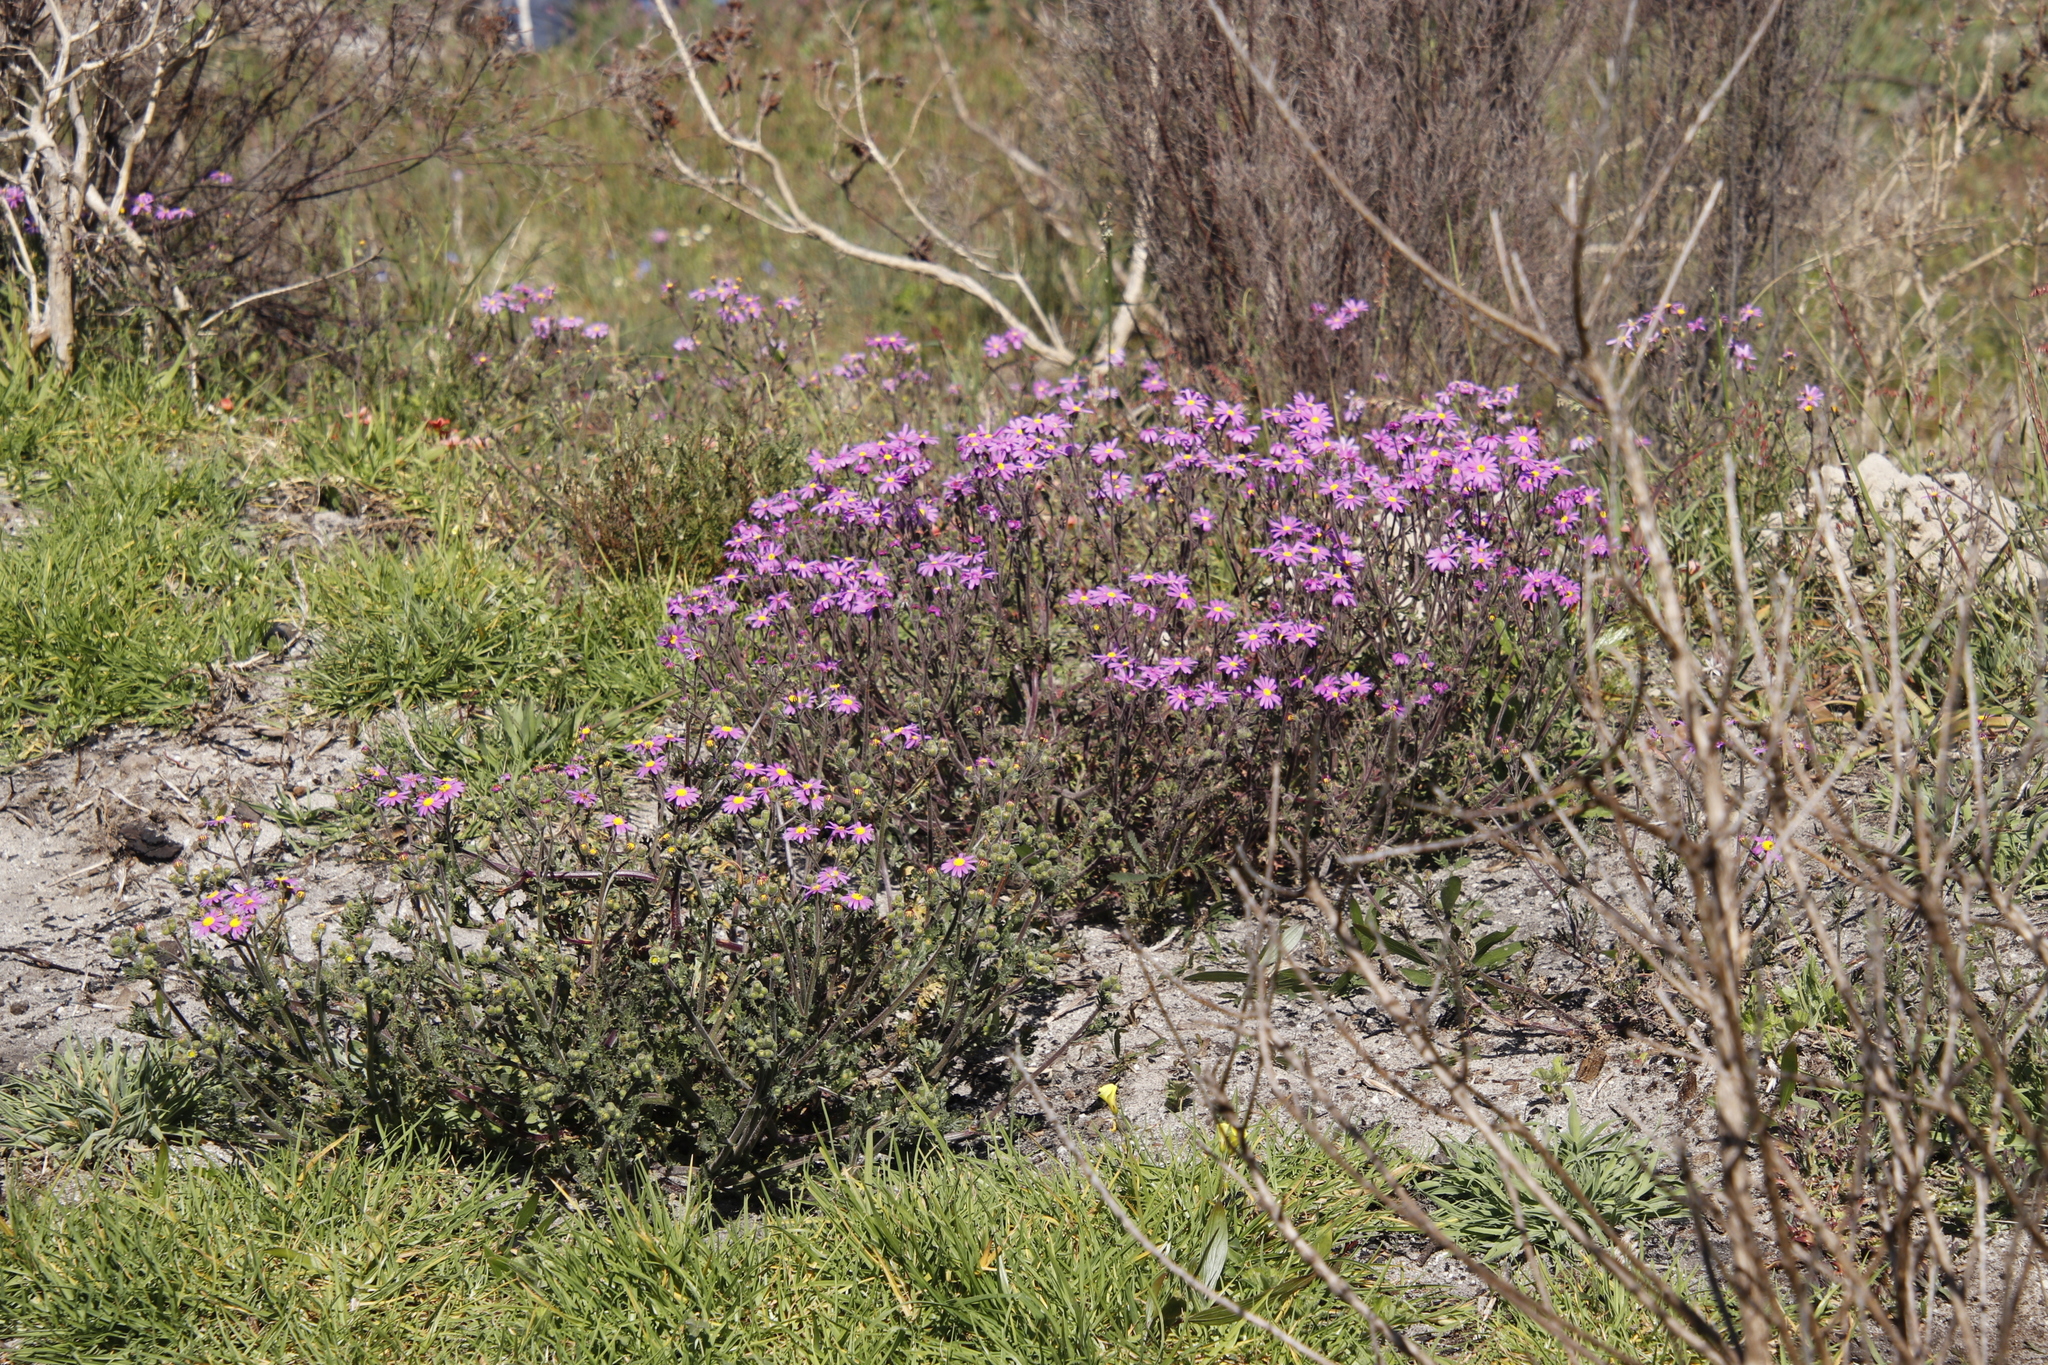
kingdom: Plantae
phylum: Tracheophyta
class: Magnoliopsida
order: Asterales
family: Asteraceae
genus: Senecio
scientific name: Senecio arenarius
